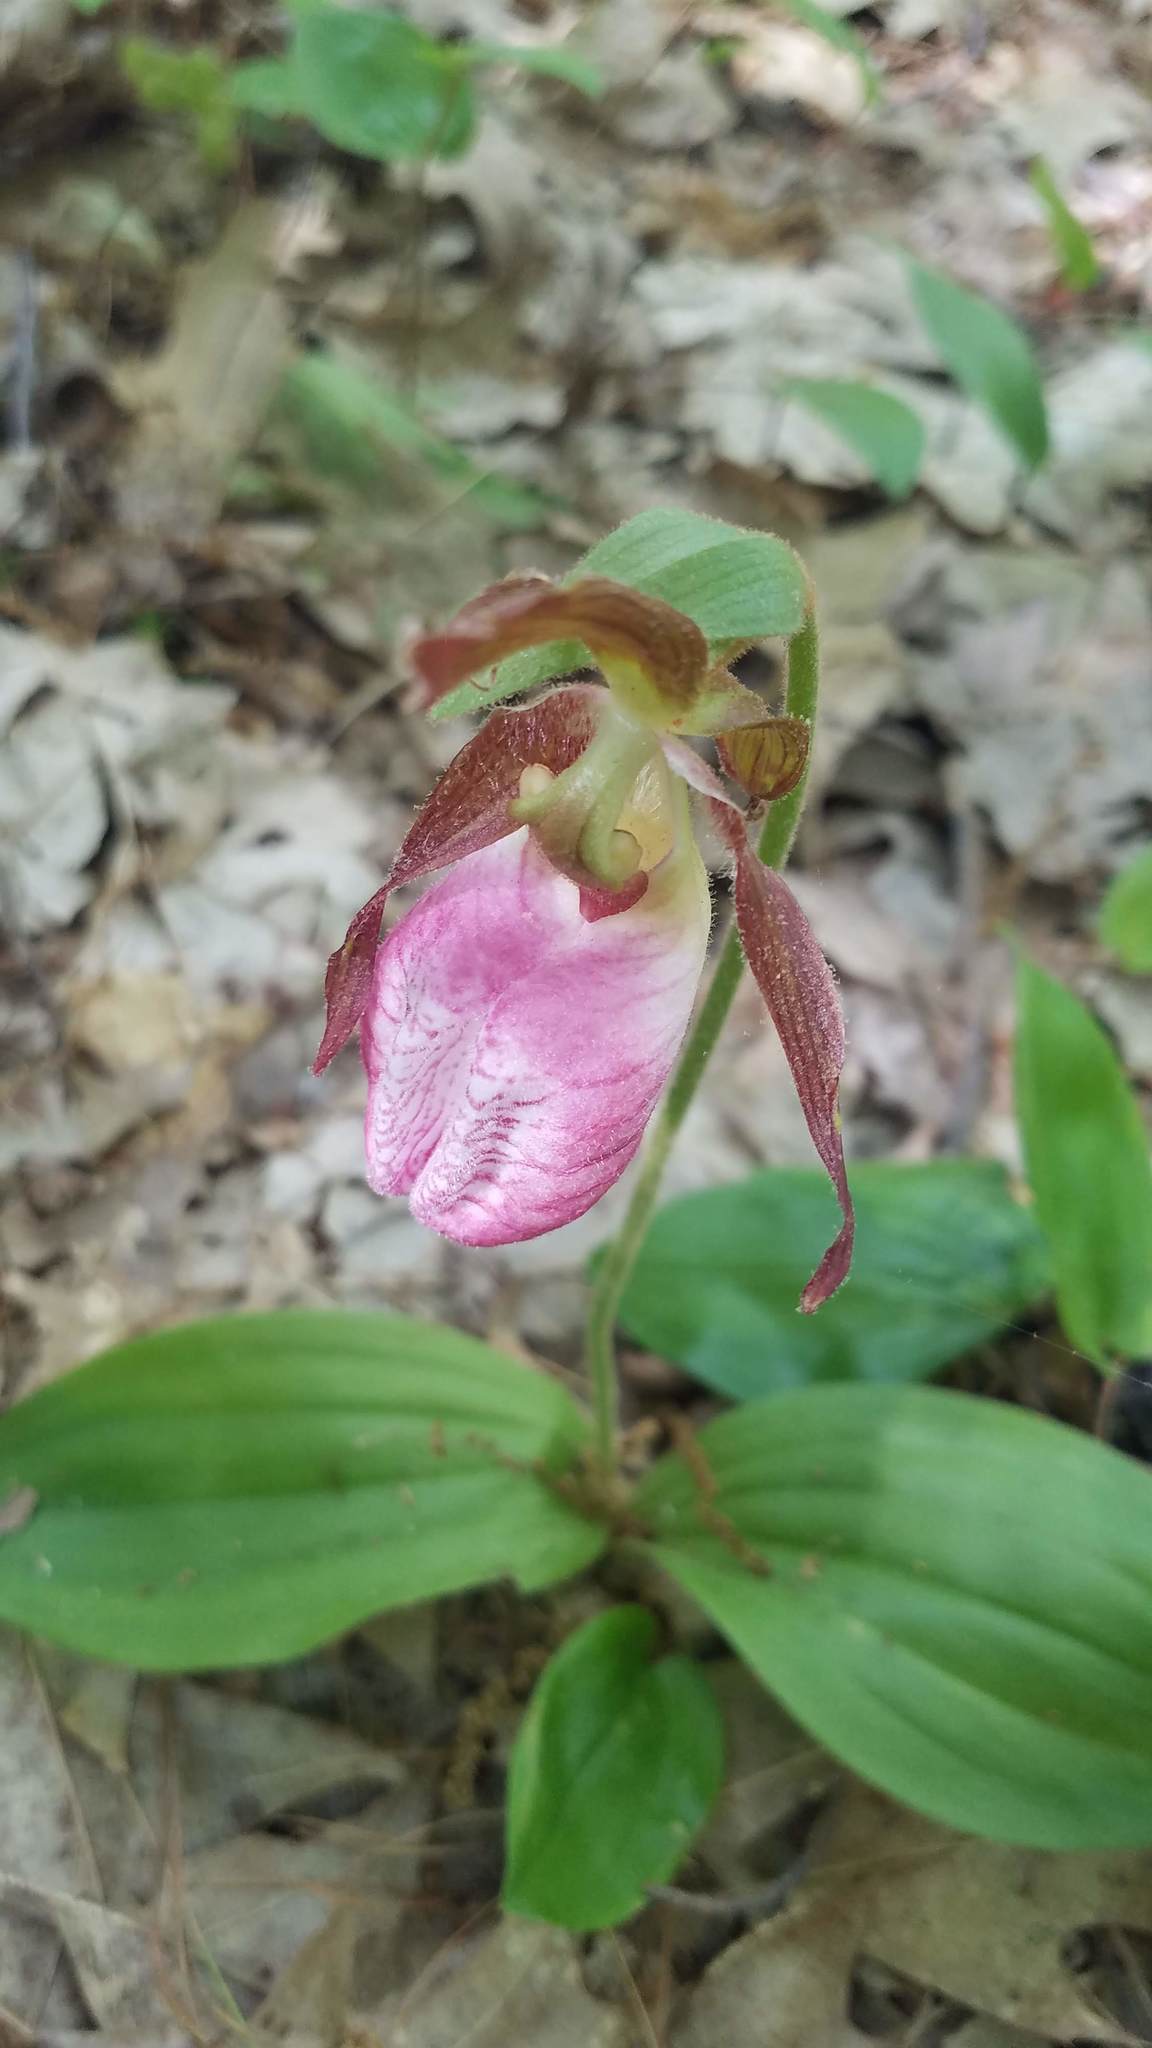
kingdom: Plantae
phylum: Tracheophyta
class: Liliopsida
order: Asparagales
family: Orchidaceae
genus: Cypripedium
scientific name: Cypripedium acaule
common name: Pink lady's-slipper
